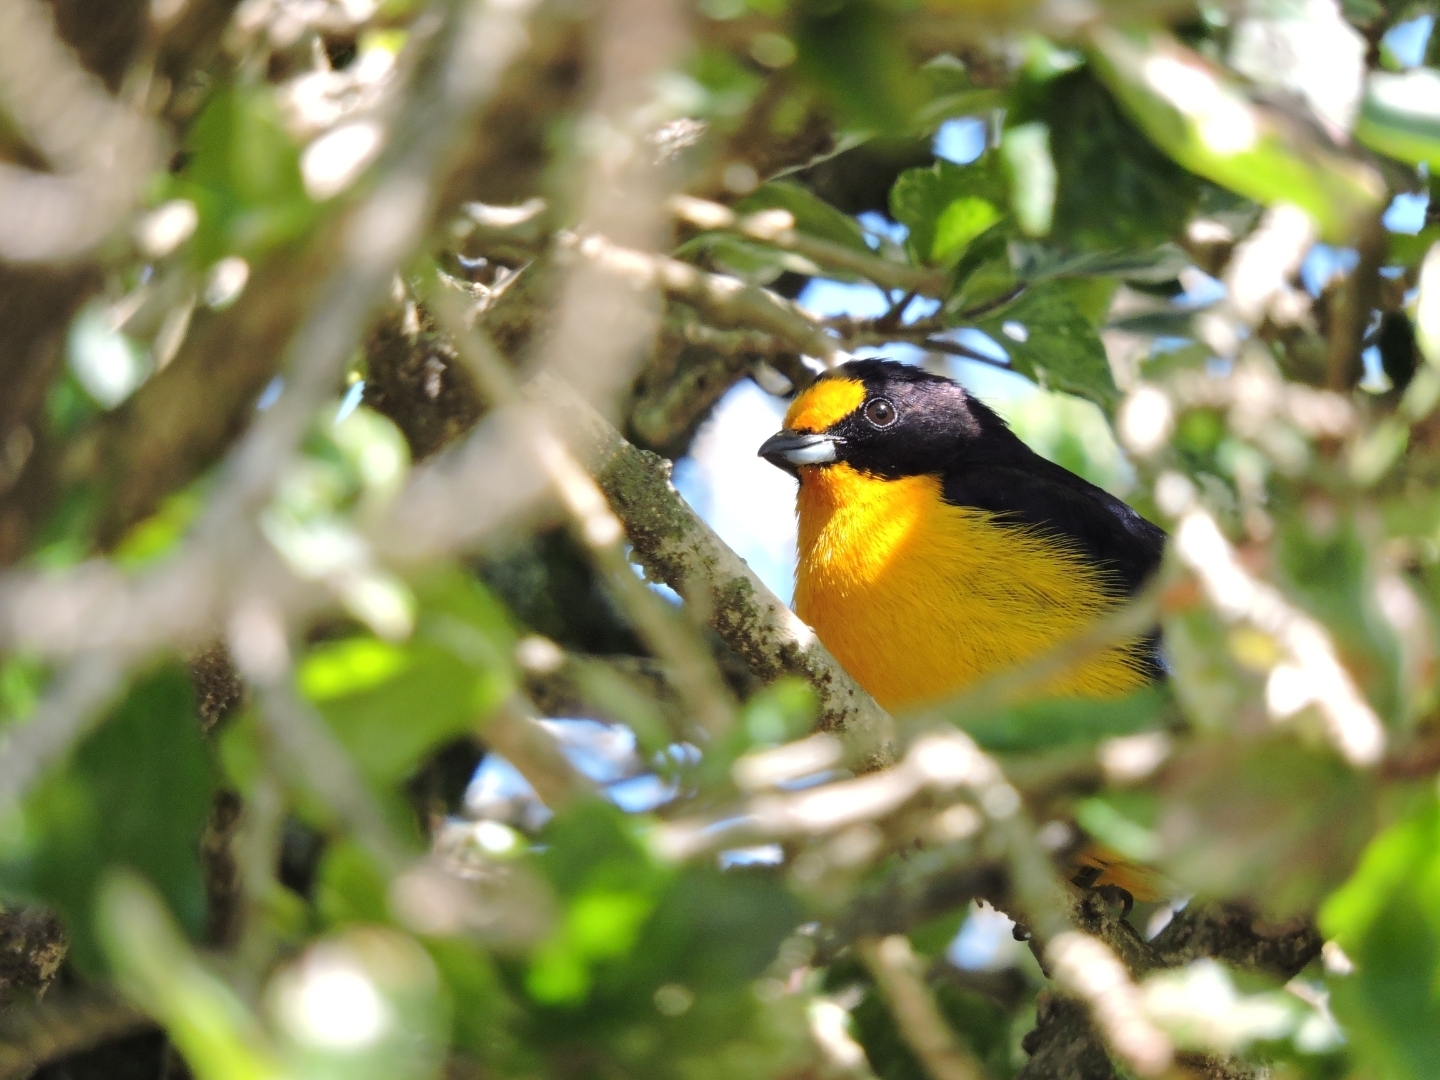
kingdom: Animalia
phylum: Chordata
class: Aves
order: Passeriformes
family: Fringillidae
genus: Euphonia
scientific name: Euphonia violacea
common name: Violaceous euphonia
